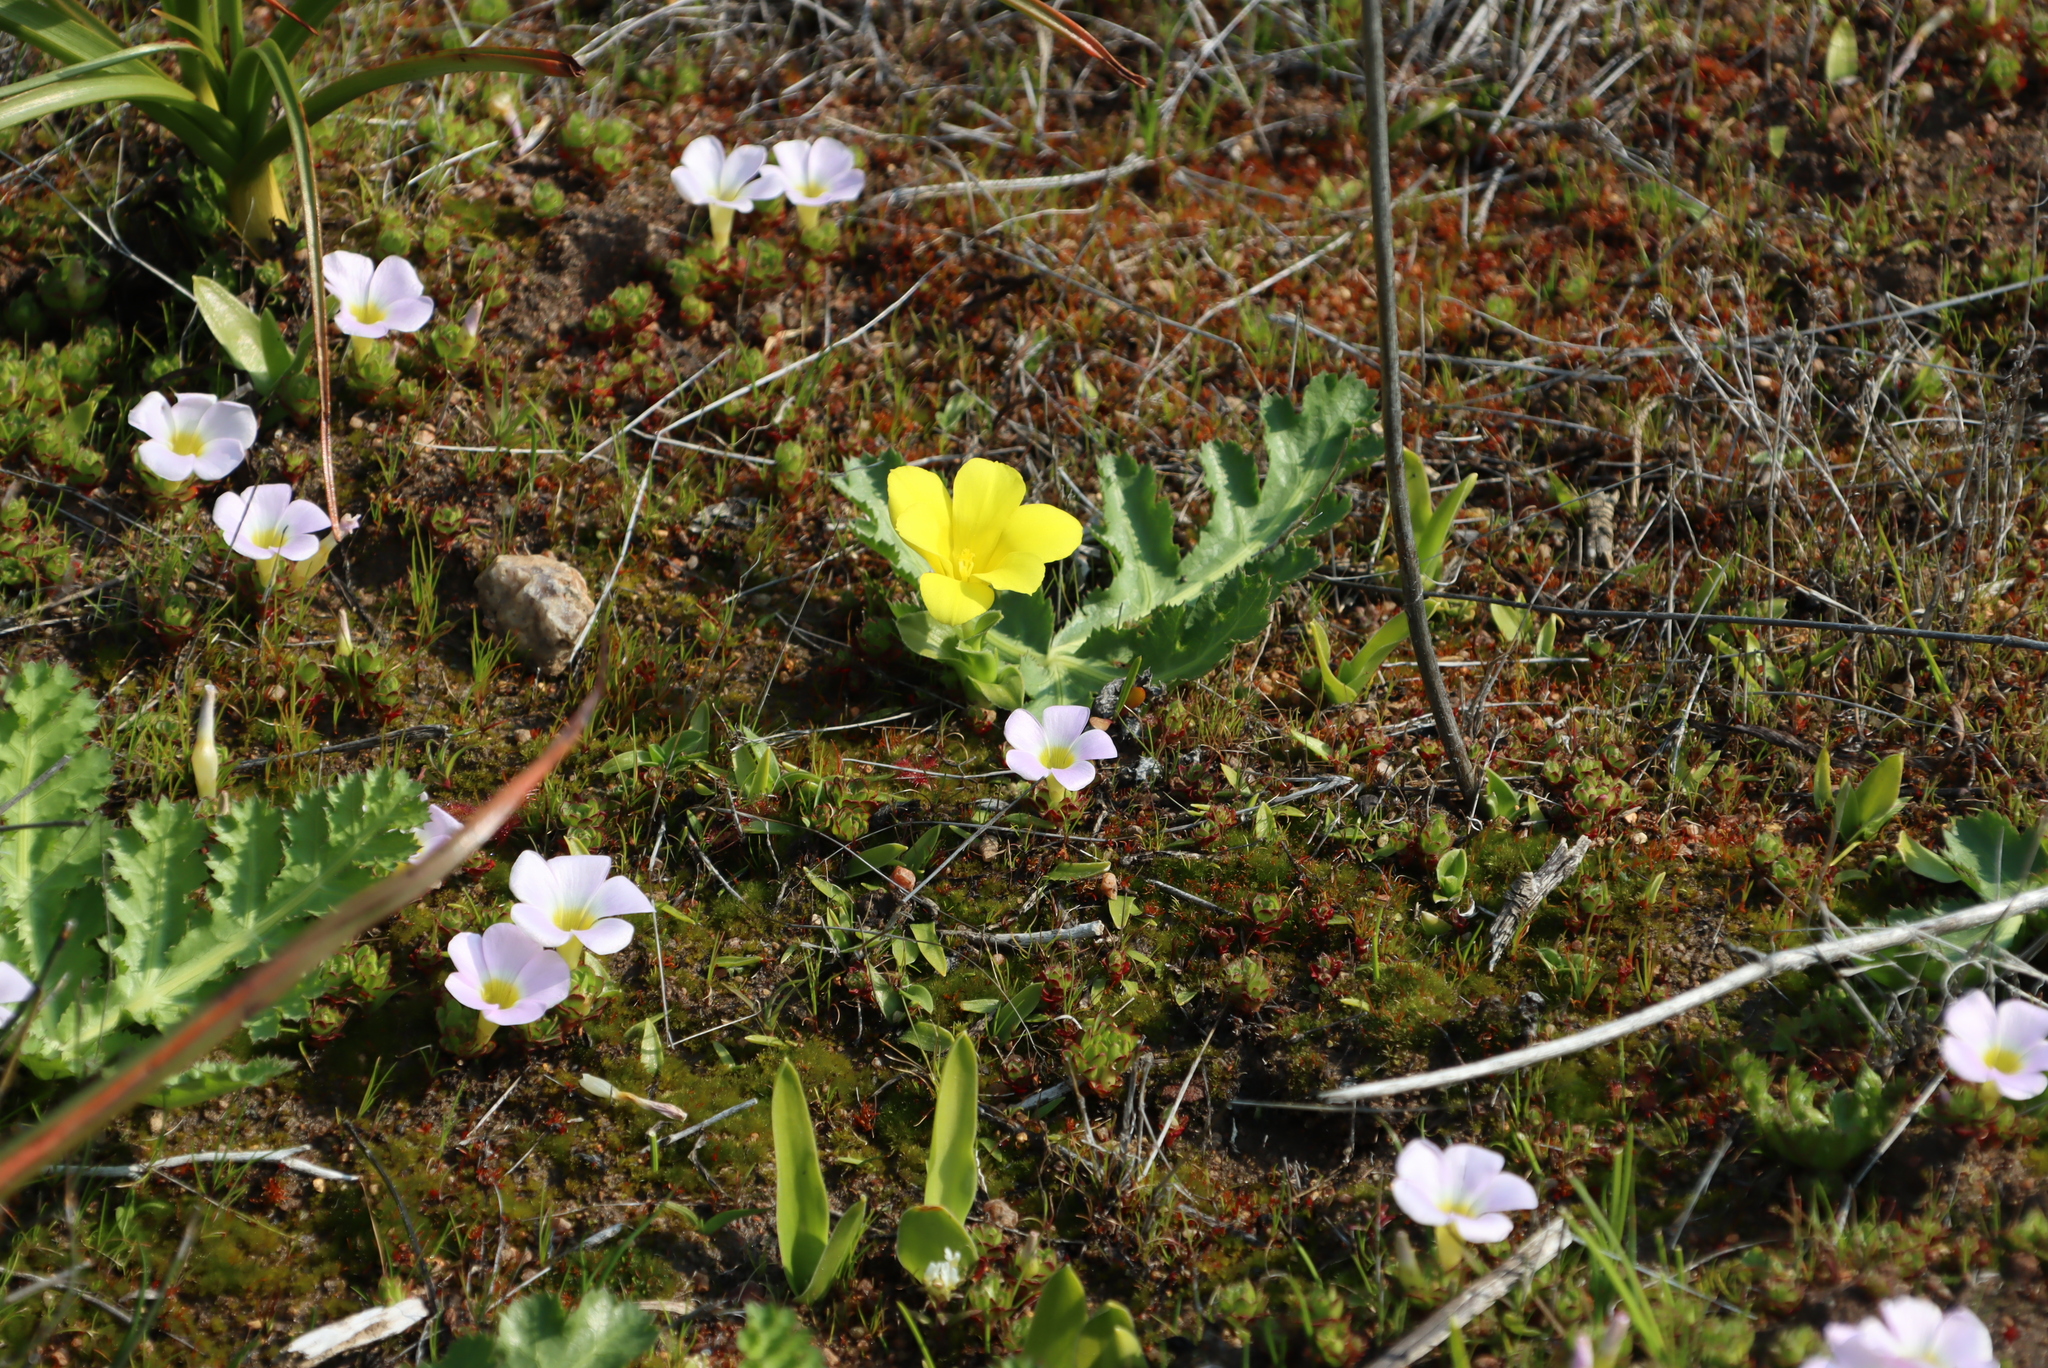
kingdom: Plantae
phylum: Tracheophyta
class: Magnoliopsida
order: Oxalidales
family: Oxalidaceae
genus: Oxalis
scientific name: Oxalis adenodes
